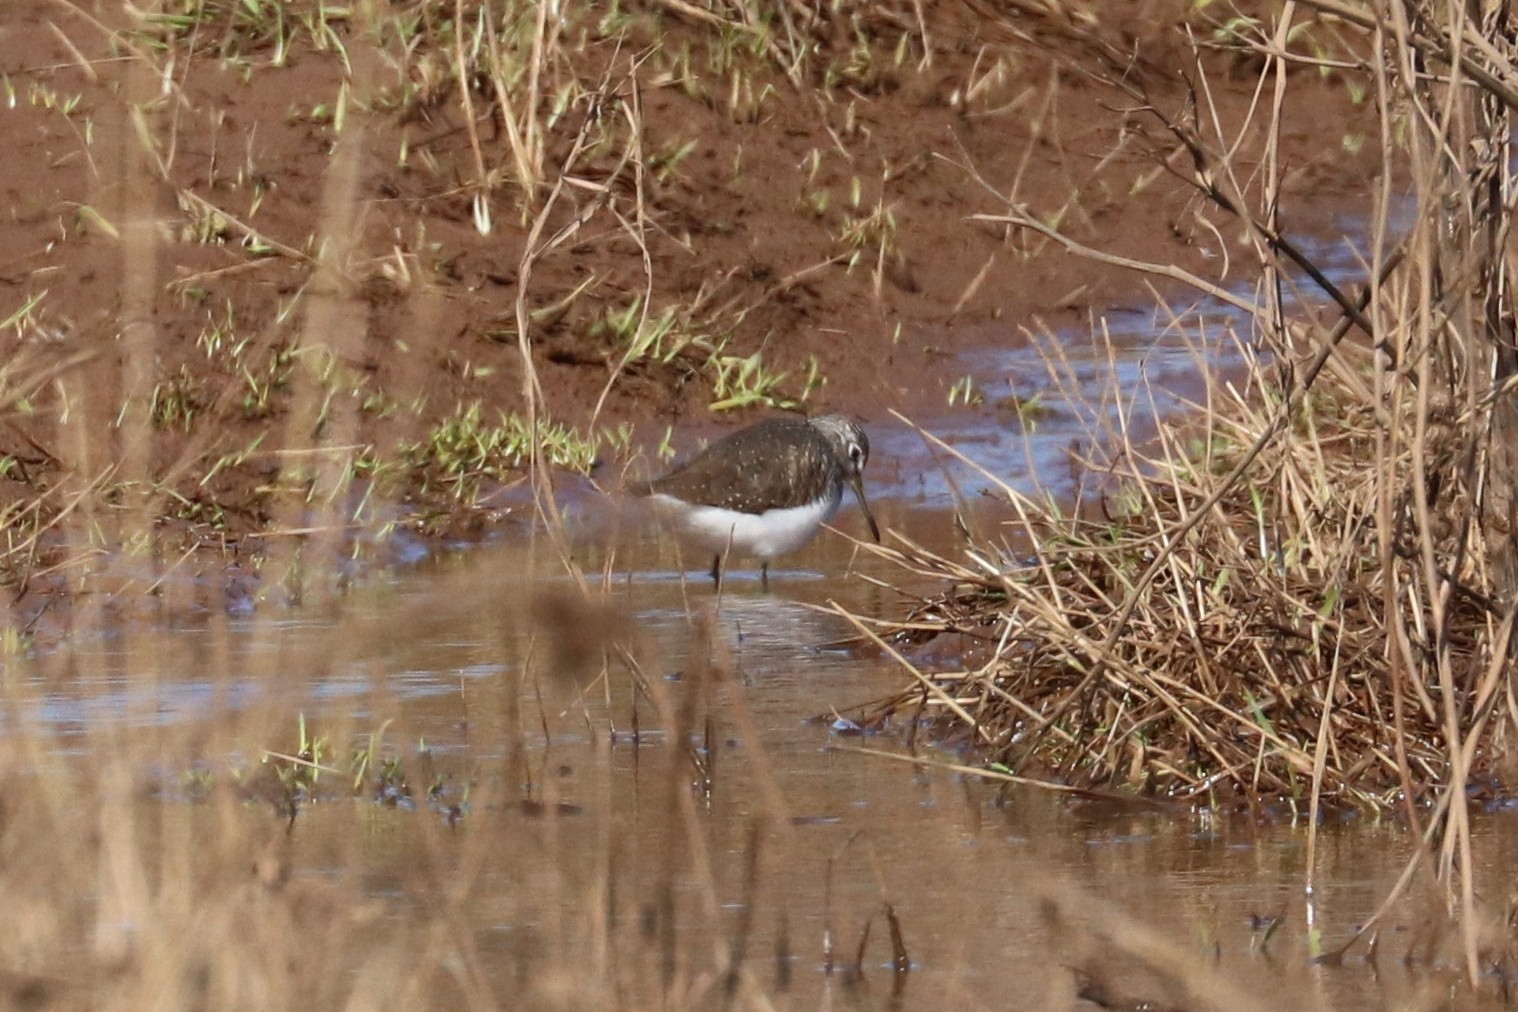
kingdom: Animalia
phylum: Chordata
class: Aves
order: Charadriiformes
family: Scolopacidae
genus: Tringa
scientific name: Tringa ochropus
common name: Green sandpiper
